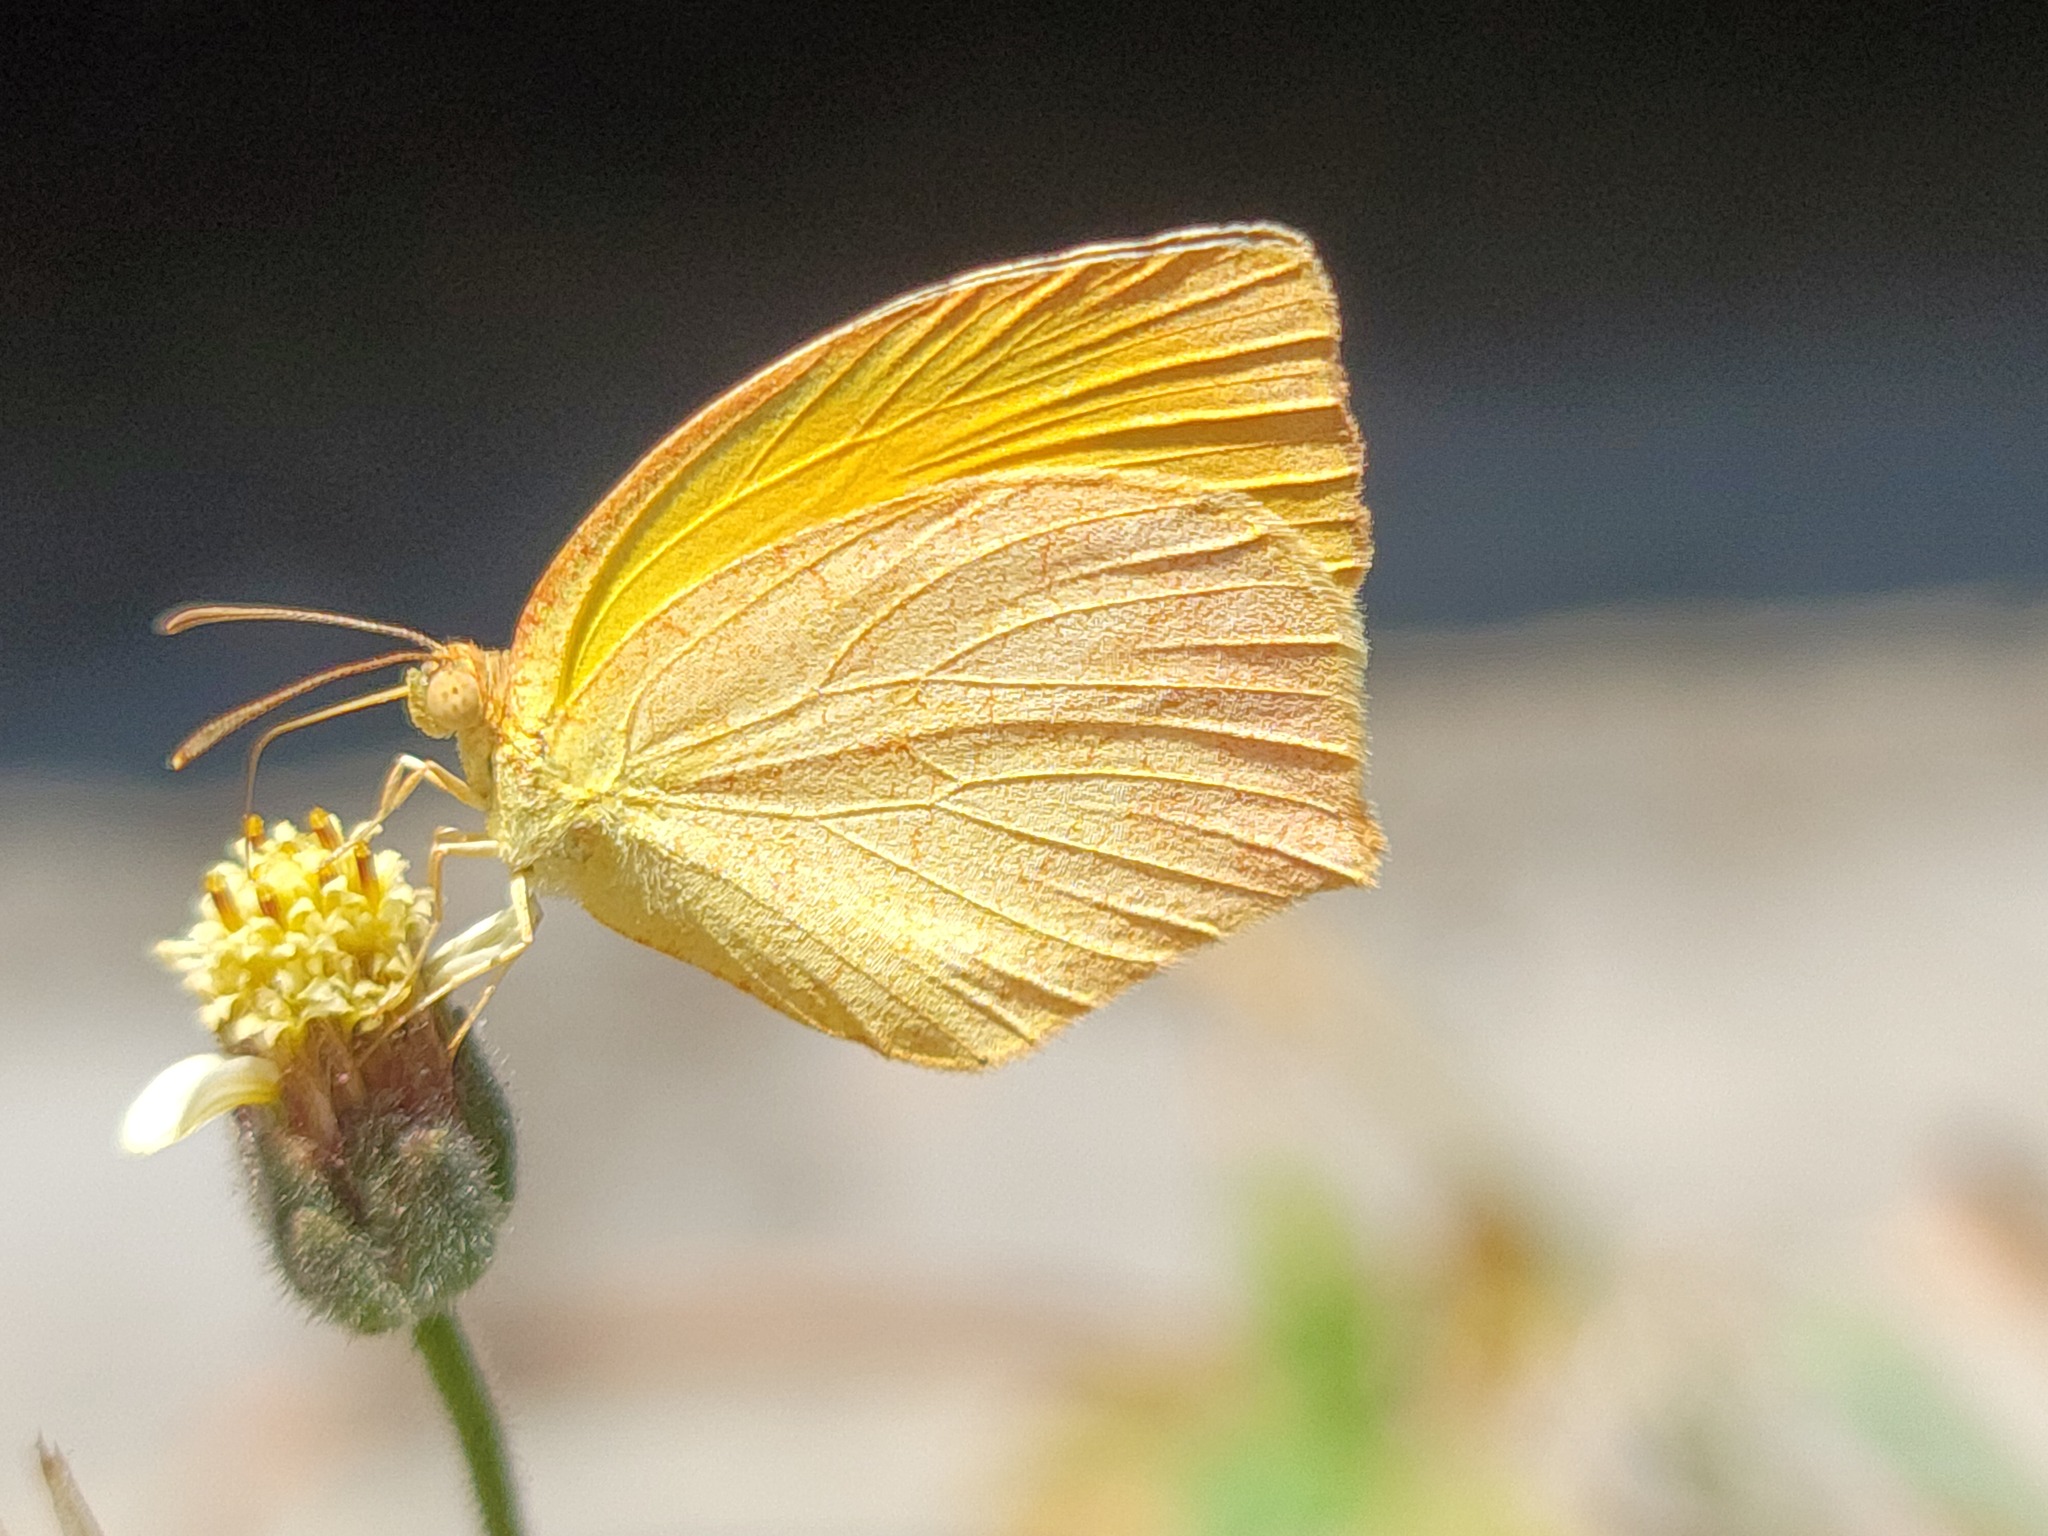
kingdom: Animalia
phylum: Arthropoda
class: Insecta
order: Lepidoptera
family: Pieridae
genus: Pyrisitia
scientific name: Pyrisitia proterpia
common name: Tailed orange
